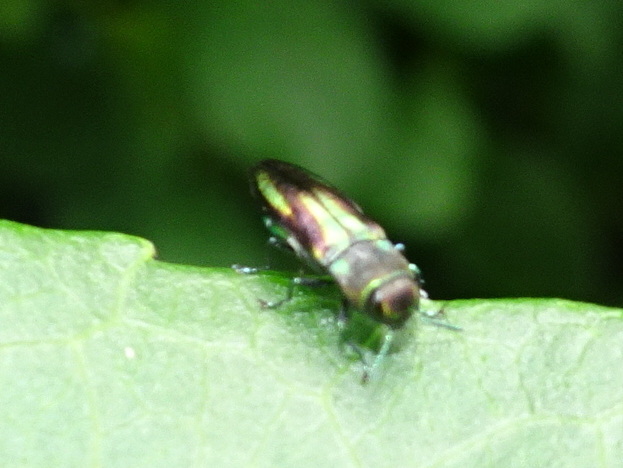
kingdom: Animalia
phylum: Arthropoda
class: Insecta
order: Coleoptera
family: Buprestidae
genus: Anthaxia
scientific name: Anthaxia quercata
